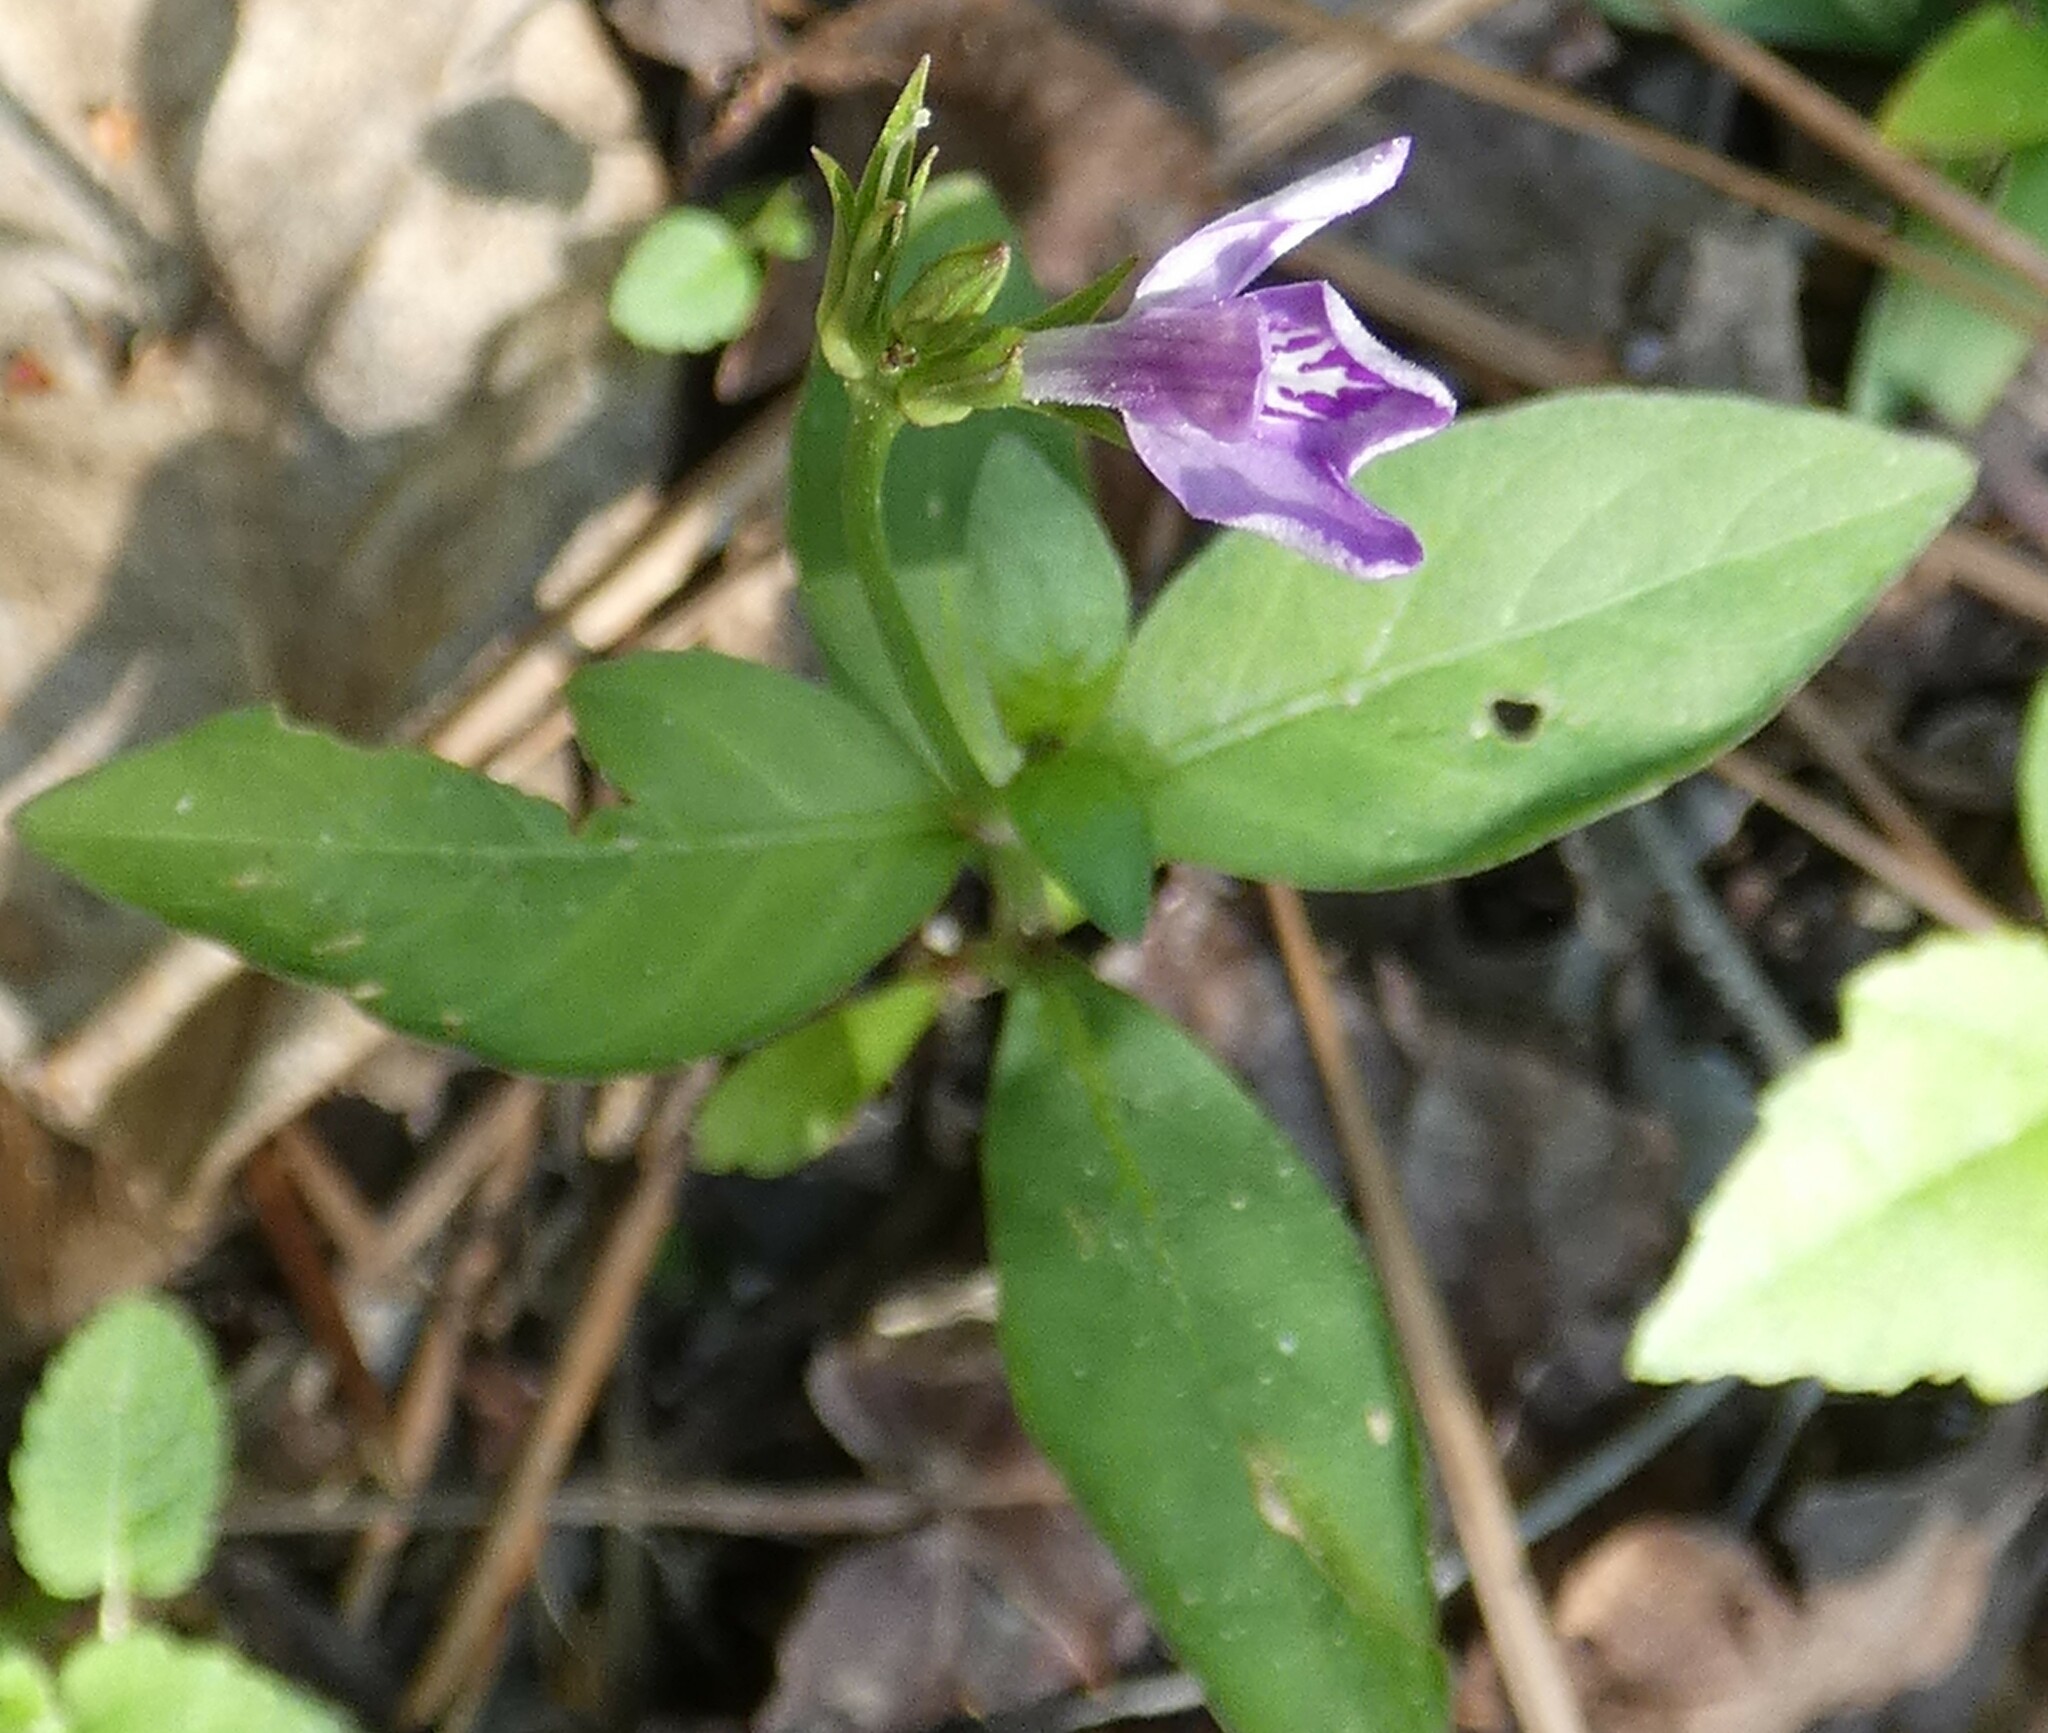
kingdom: Plantae
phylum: Tracheophyta
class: Magnoliopsida
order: Lamiales
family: Acanthaceae
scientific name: Acanthaceae
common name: Acanthaceae
